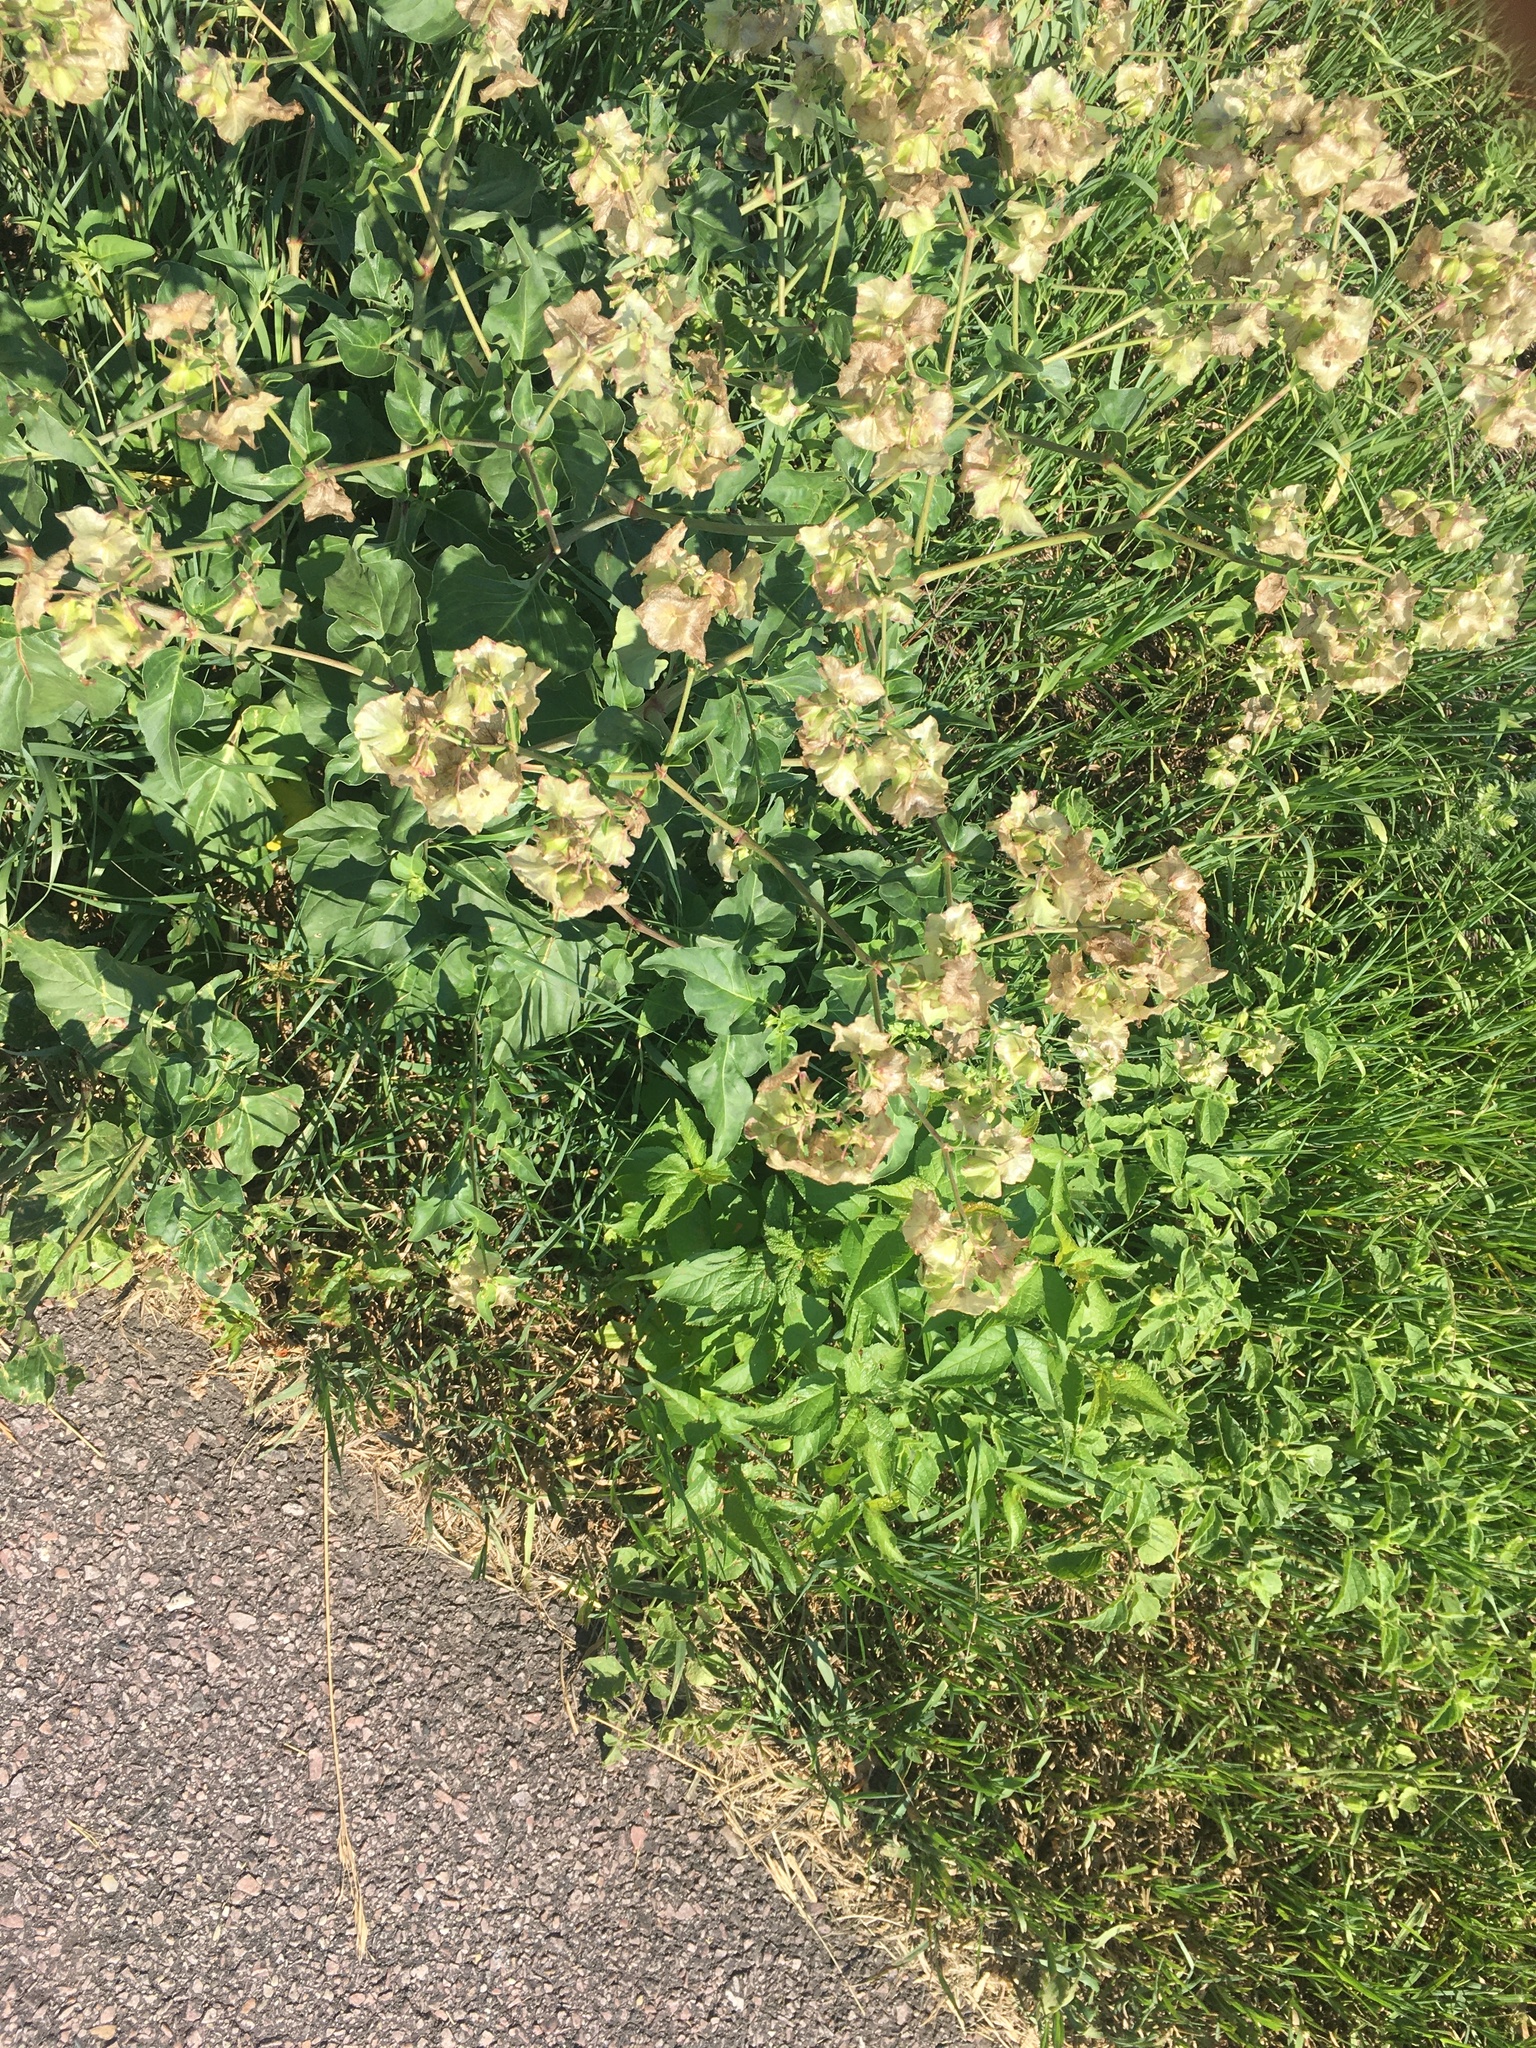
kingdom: Plantae
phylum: Tracheophyta
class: Magnoliopsida
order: Caryophyllales
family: Nyctaginaceae
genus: Mirabilis
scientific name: Mirabilis nyctaginea
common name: Umbrella wort
